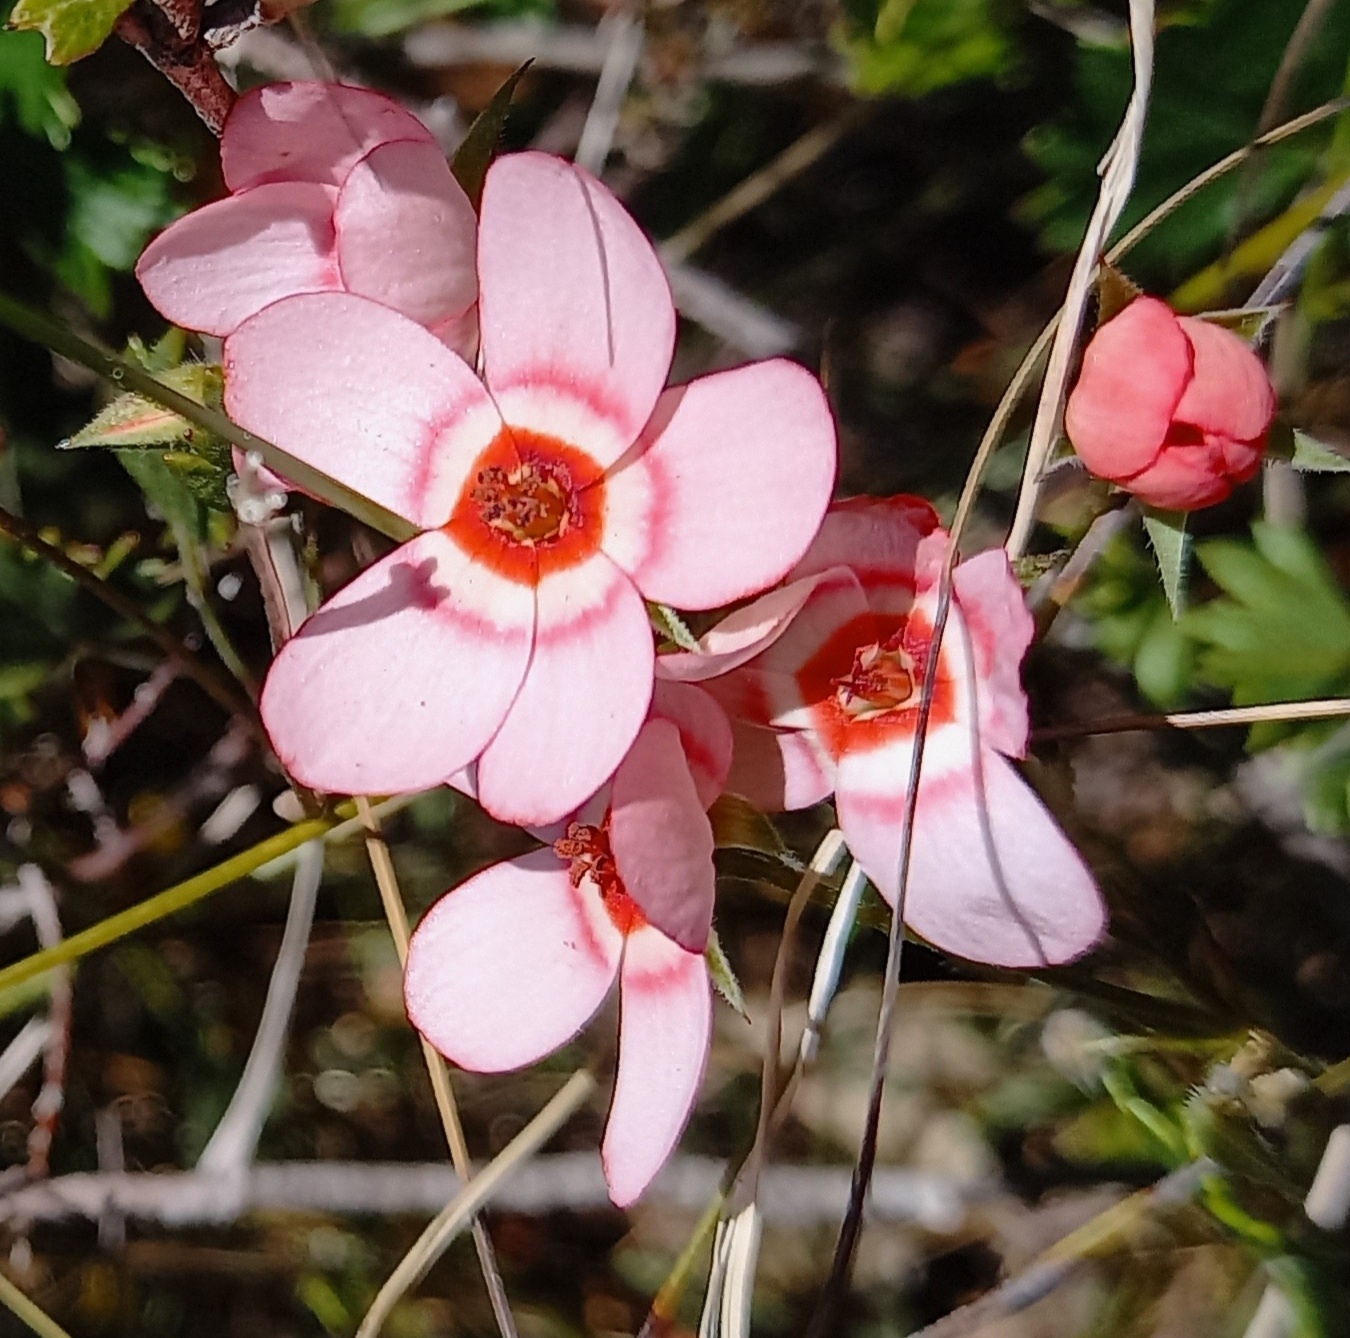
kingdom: Plantae
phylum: Tracheophyta
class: Magnoliopsida
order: Geraniales
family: Geraniaceae
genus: Pelargonium
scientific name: Pelargonium incarnatum
